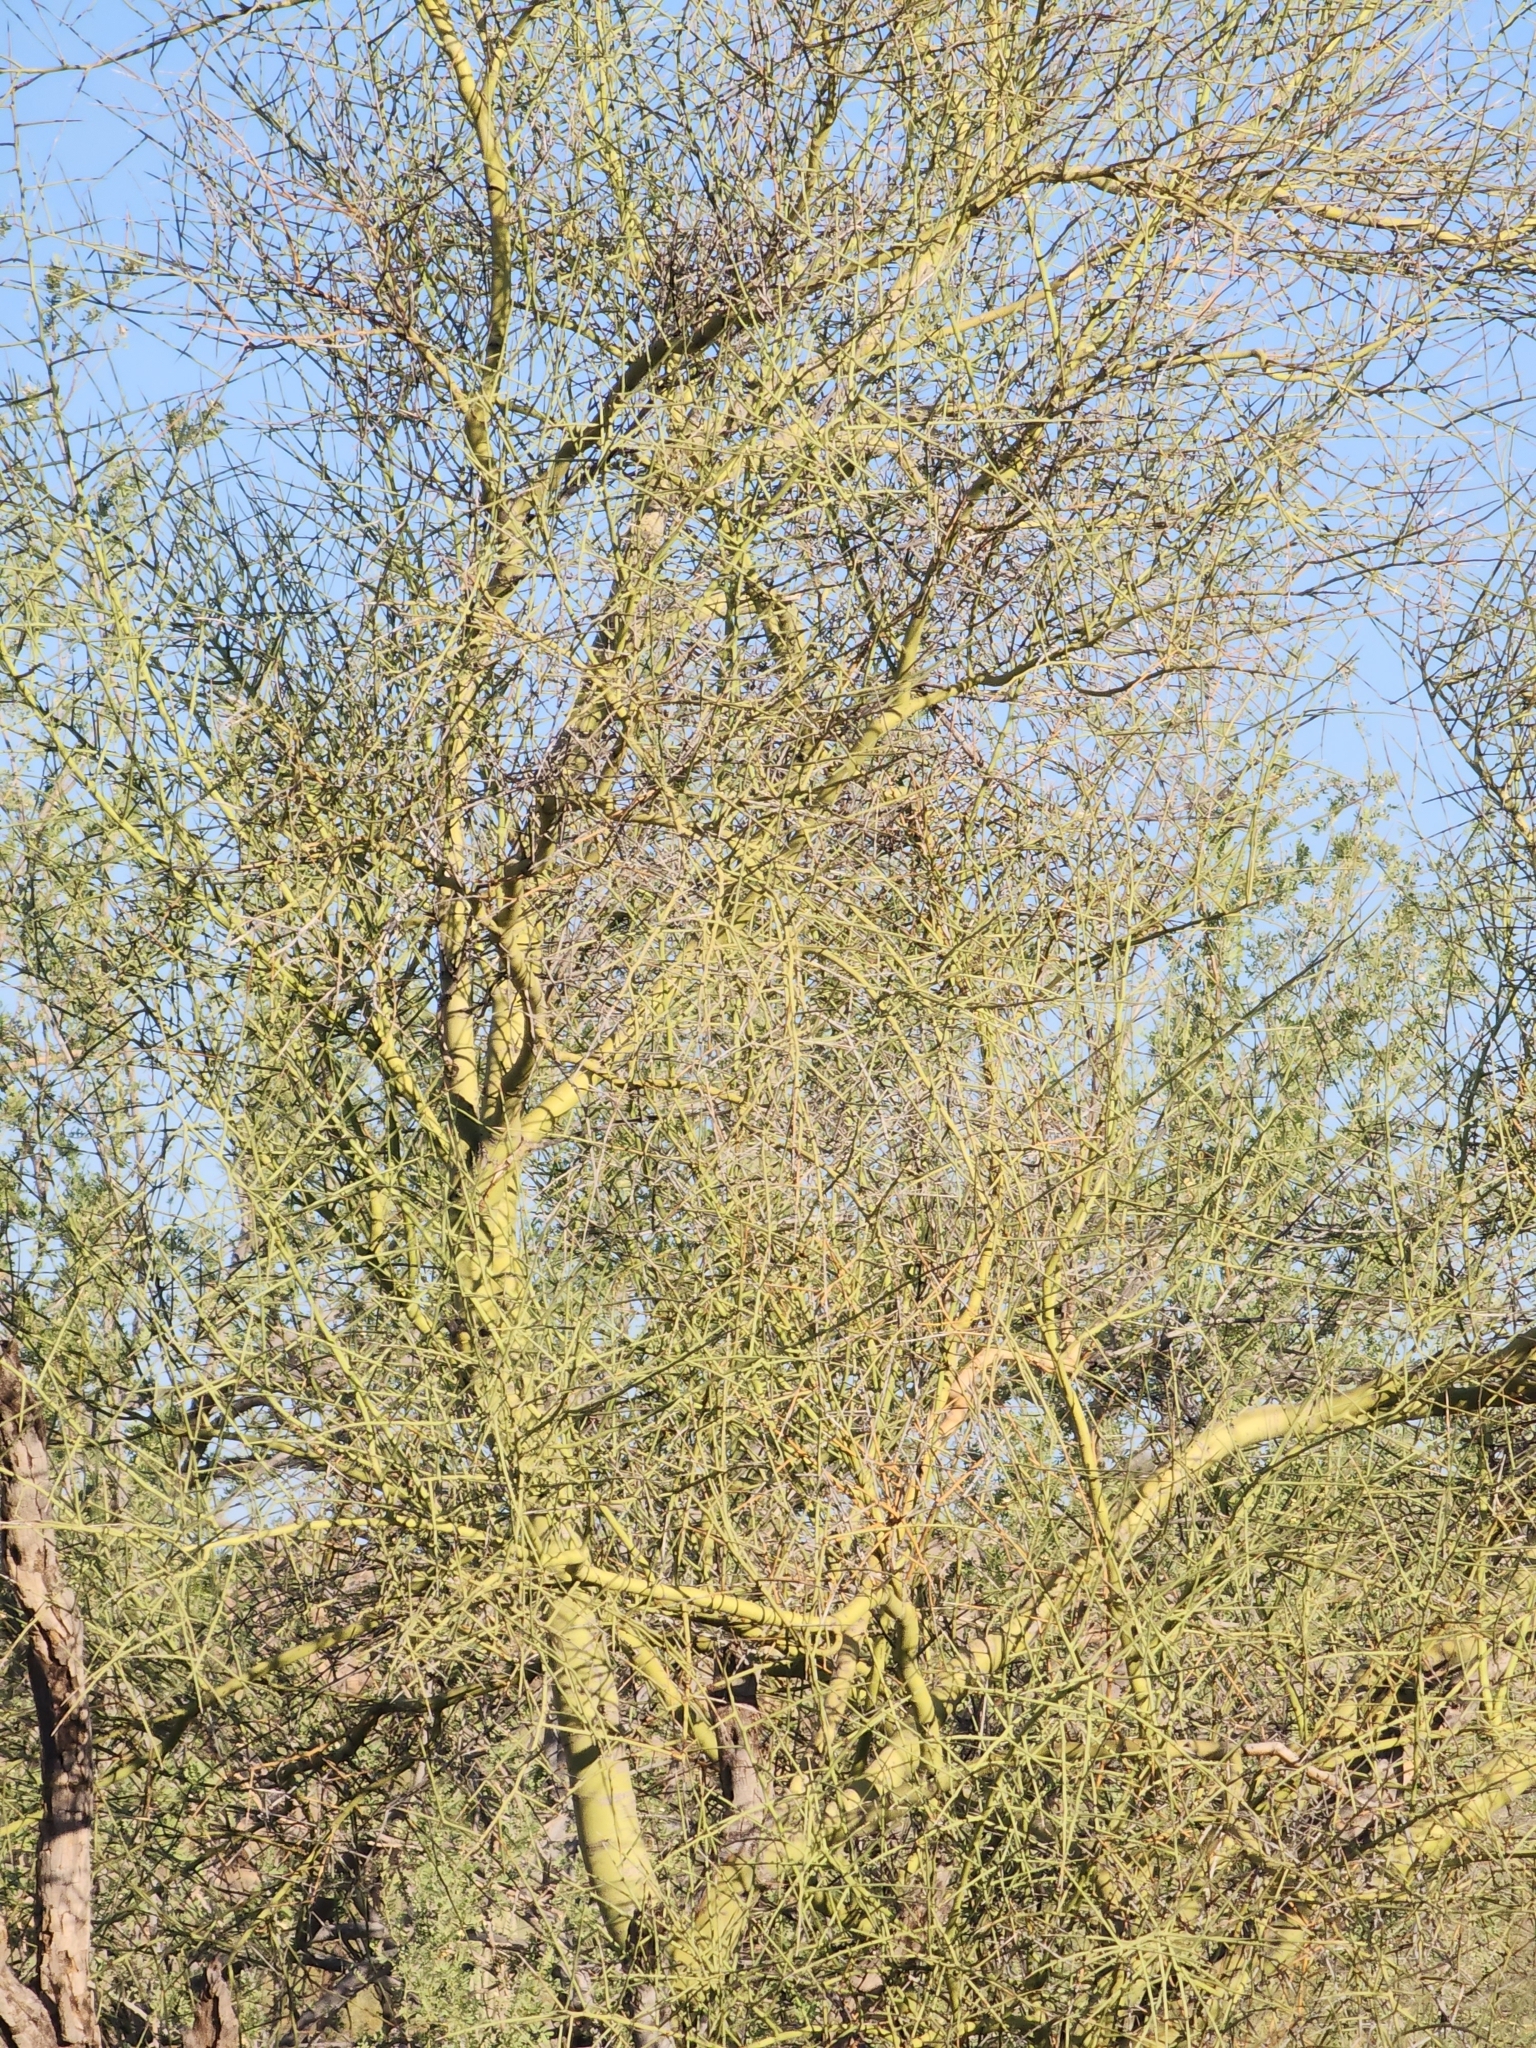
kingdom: Plantae
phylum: Tracheophyta
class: Magnoliopsida
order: Fabales
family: Fabaceae
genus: Parkinsonia
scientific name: Parkinsonia microphylla
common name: Yellow paloverde
